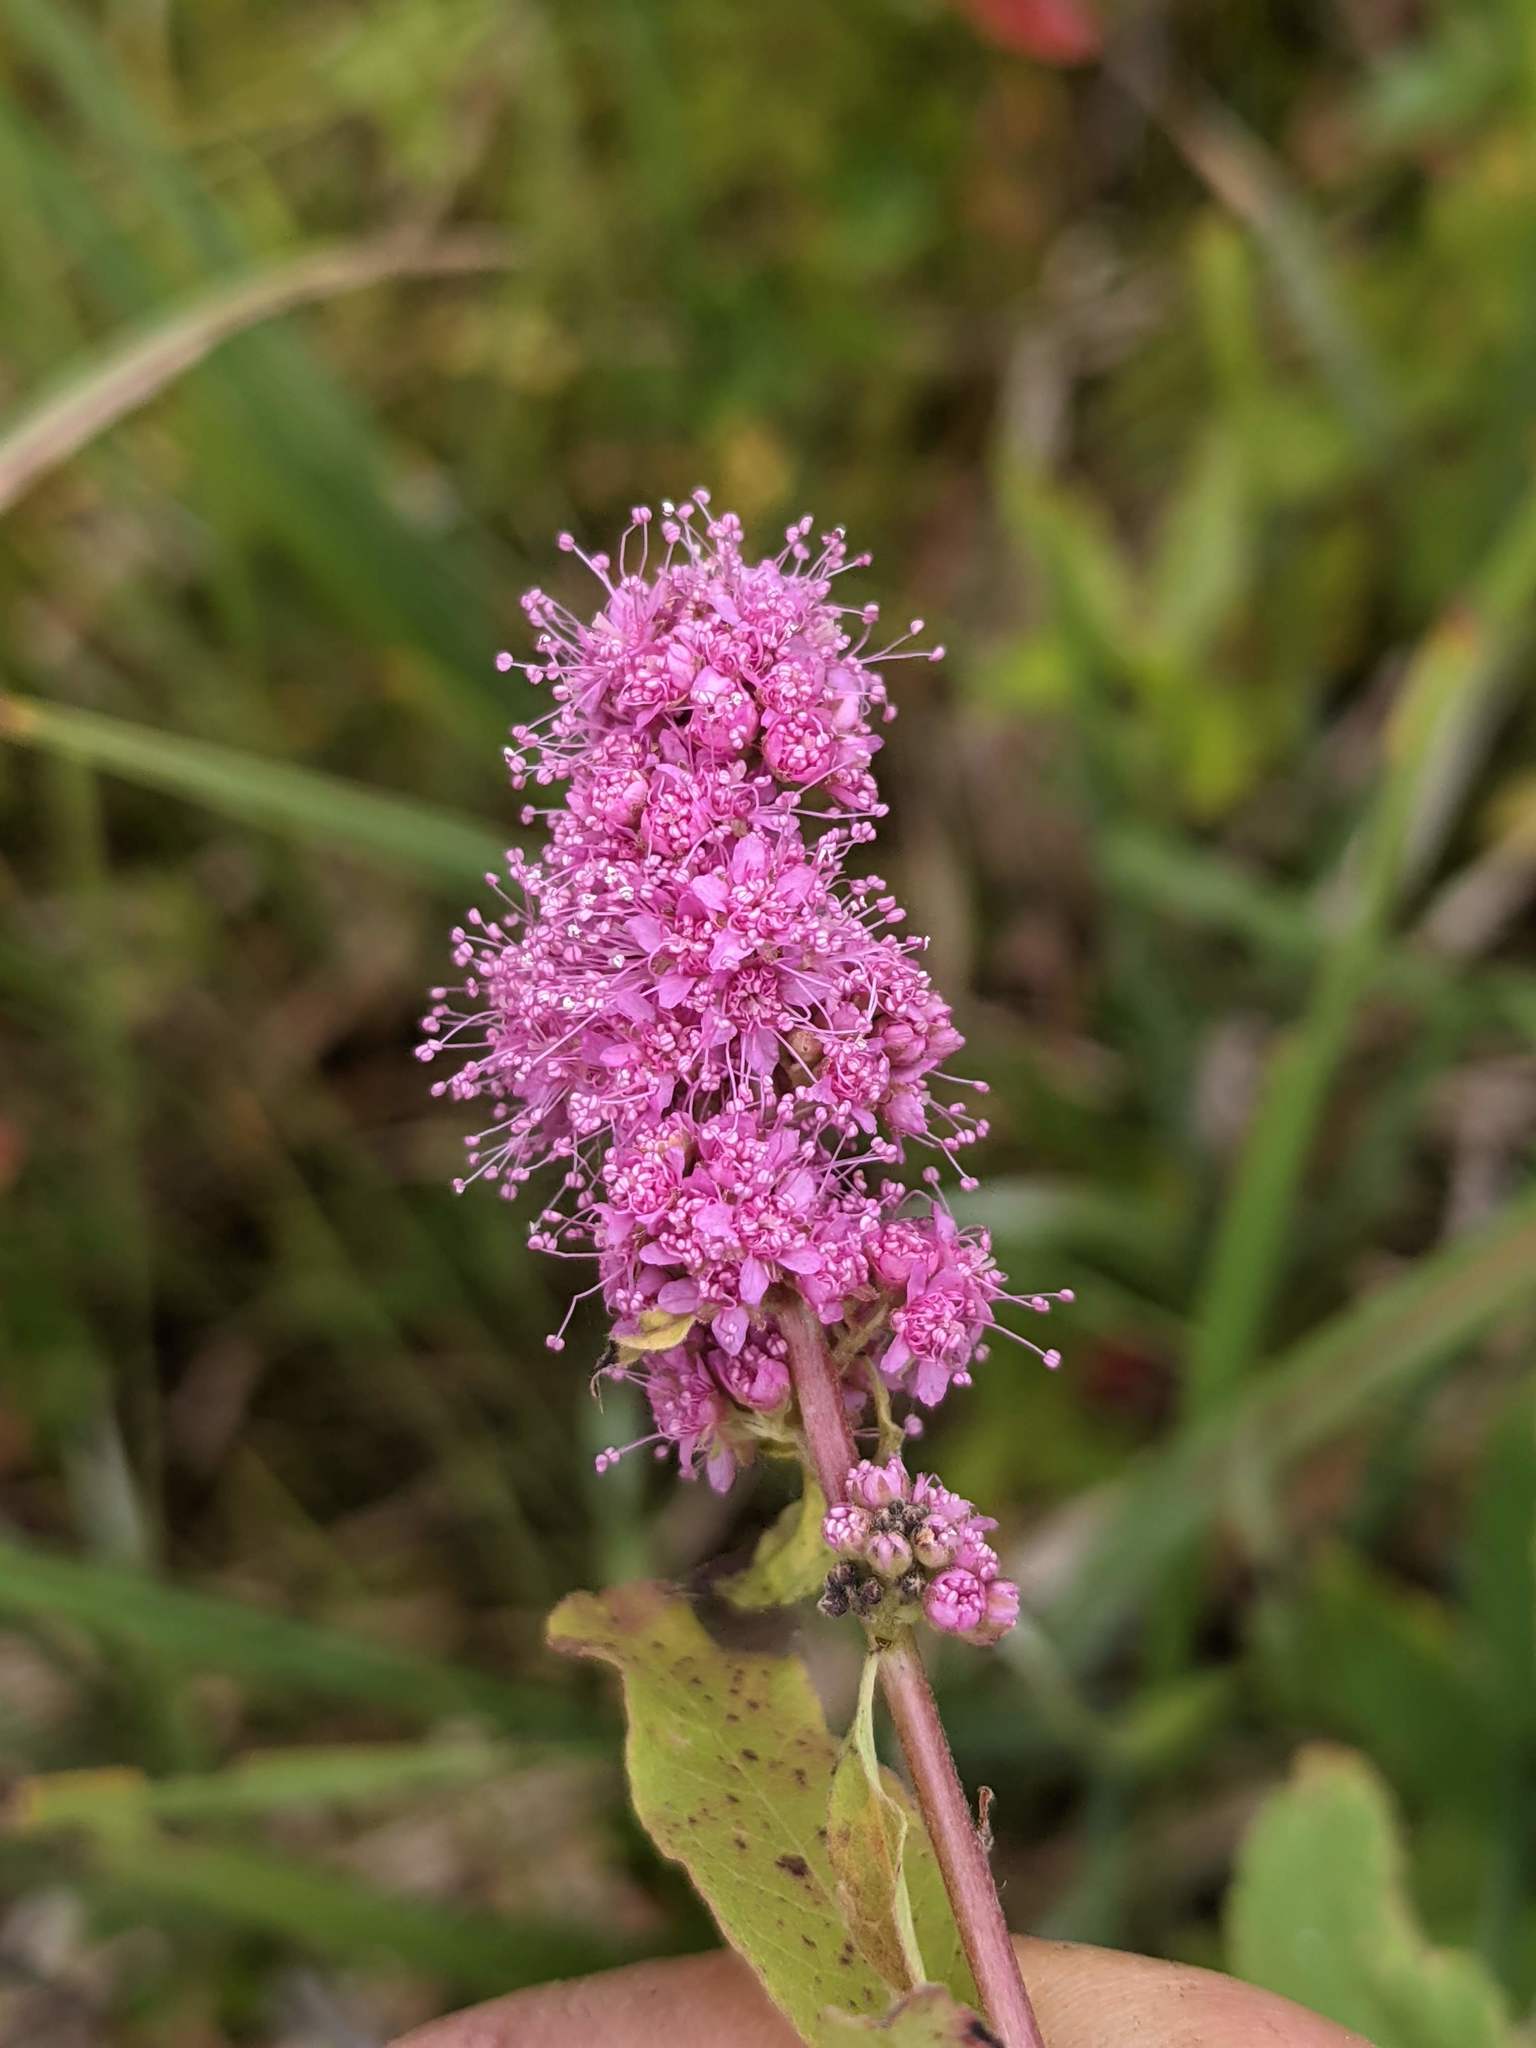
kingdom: Plantae
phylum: Tracheophyta
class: Magnoliopsida
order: Rosales
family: Rosaceae
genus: Spiraea
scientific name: Spiraea douglasii
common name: Steeplebush
